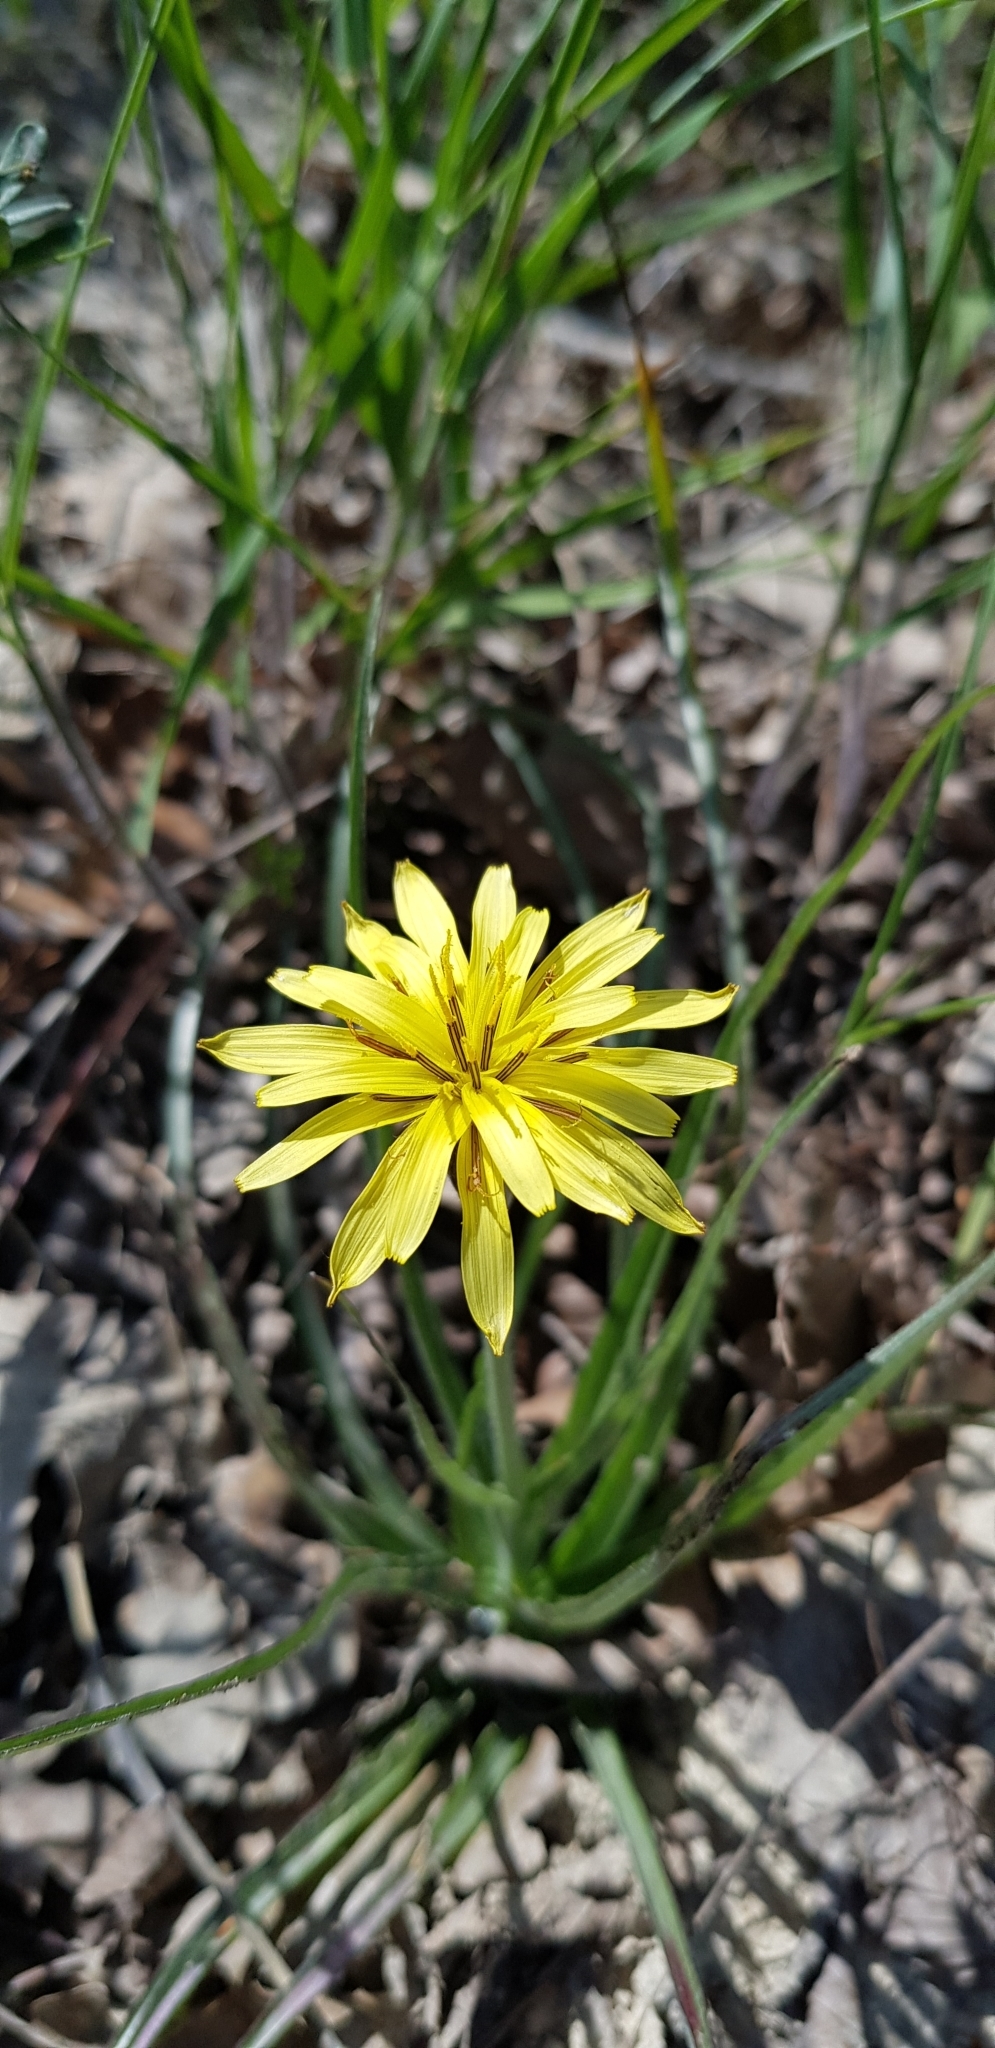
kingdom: Plantae
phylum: Tracheophyta
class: Magnoliopsida
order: Asterales
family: Asteraceae
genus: Candollea
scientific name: Candollea mollis
